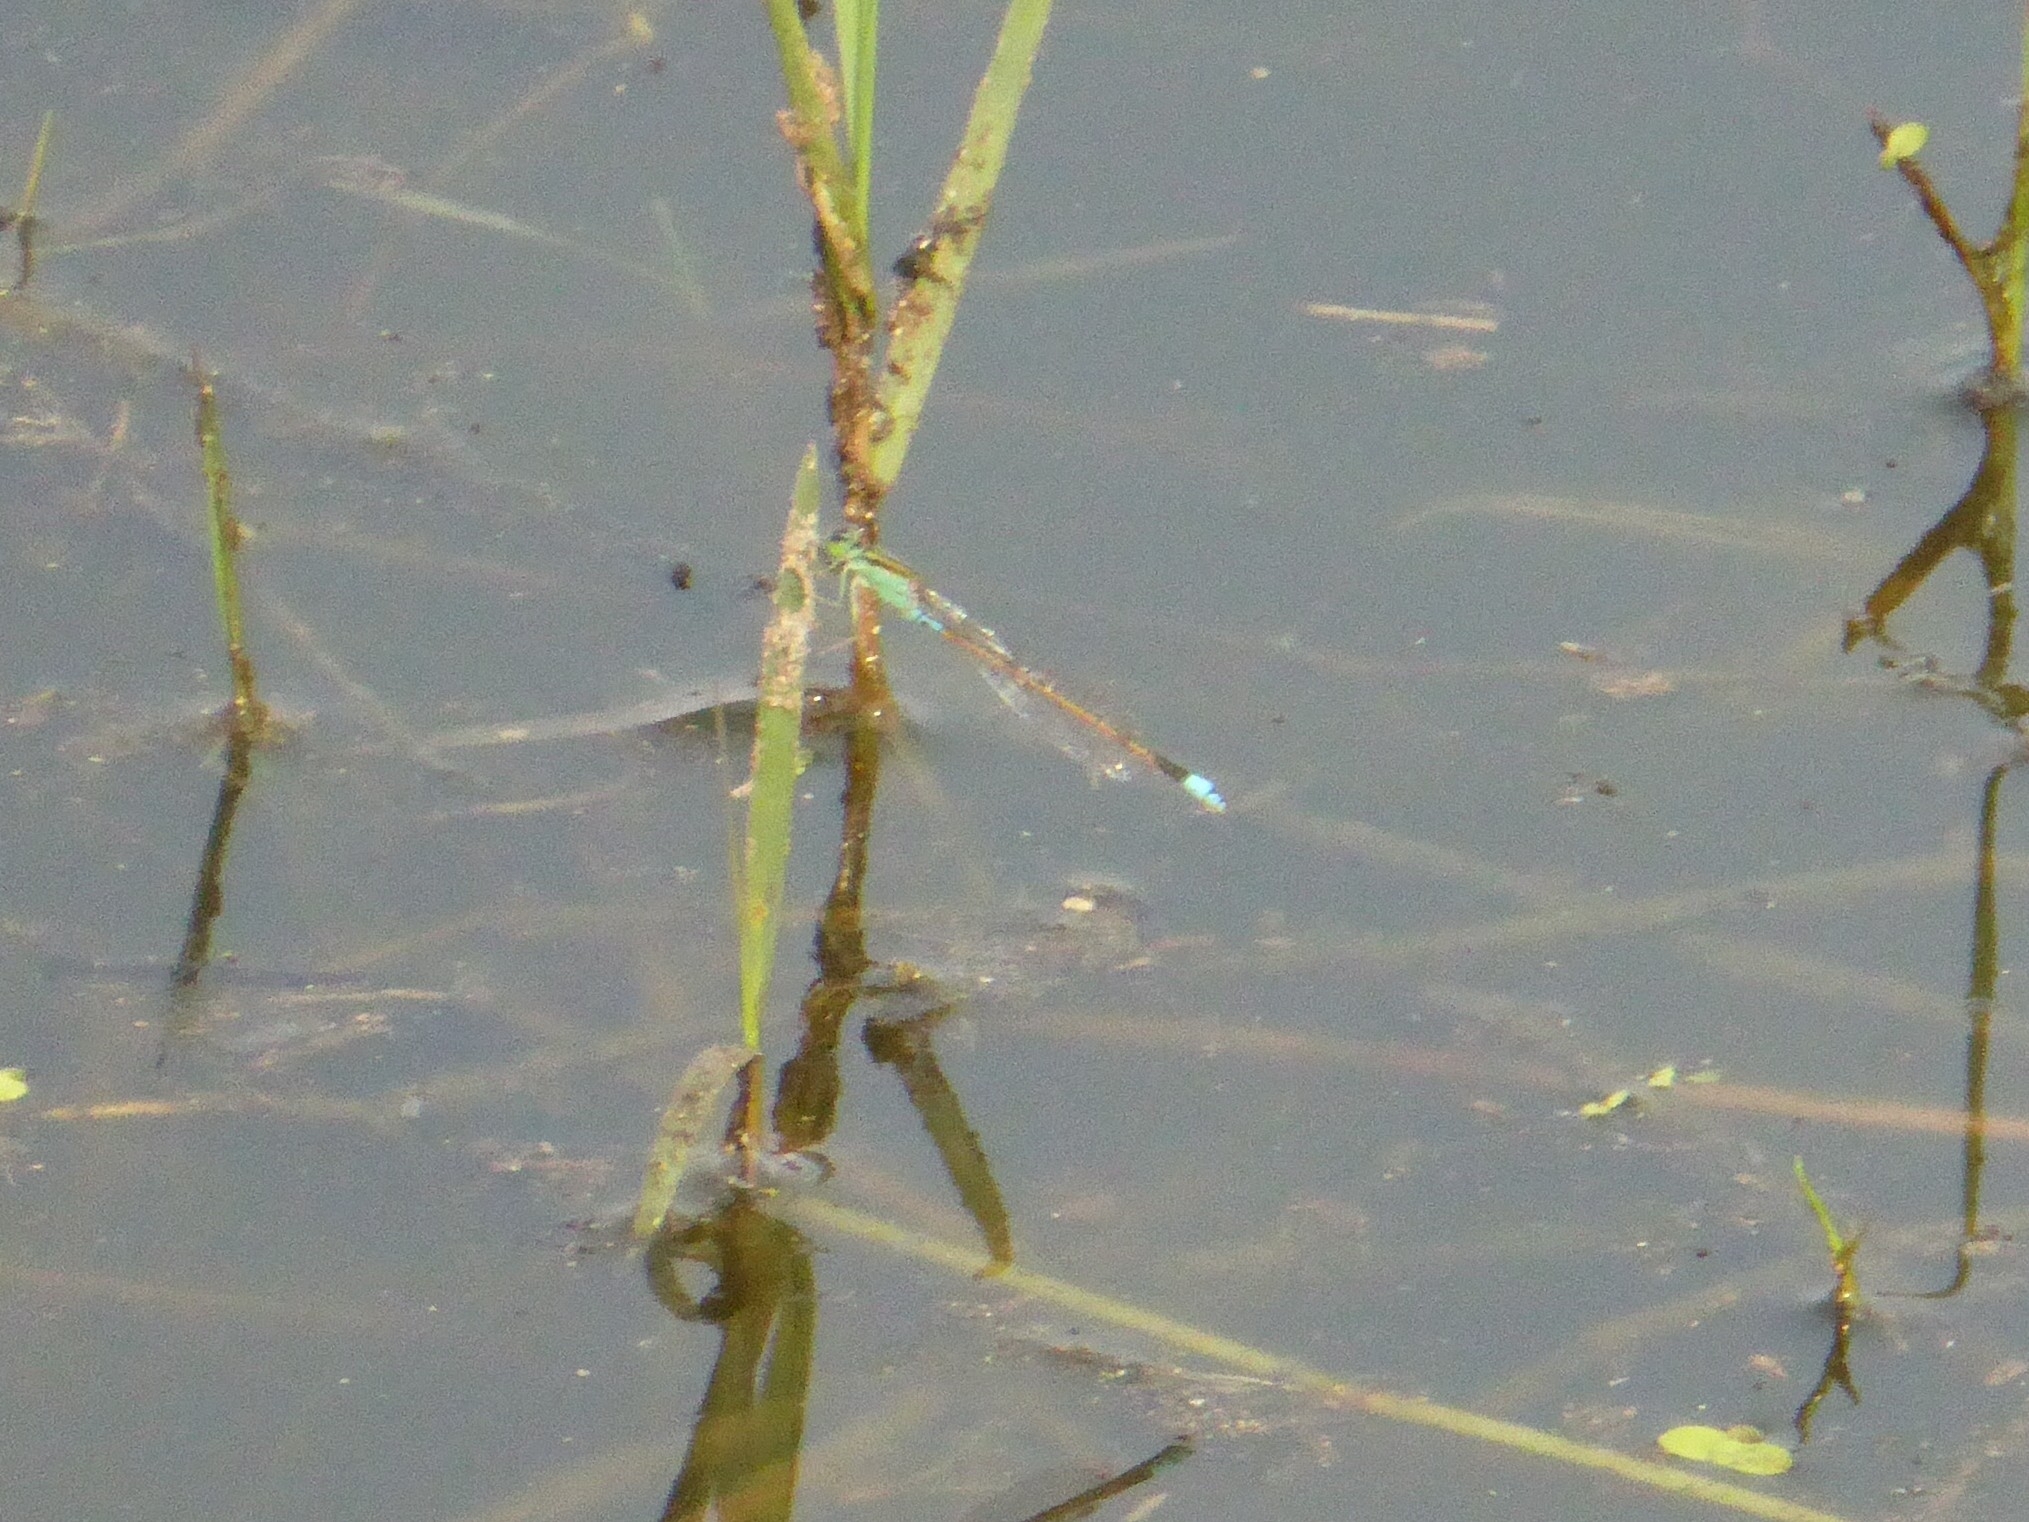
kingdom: Animalia
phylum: Arthropoda
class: Insecta
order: Odonata
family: Coenagrionidae
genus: Ischnura
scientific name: Ischnura senegalensis
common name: Tropical bluetail
